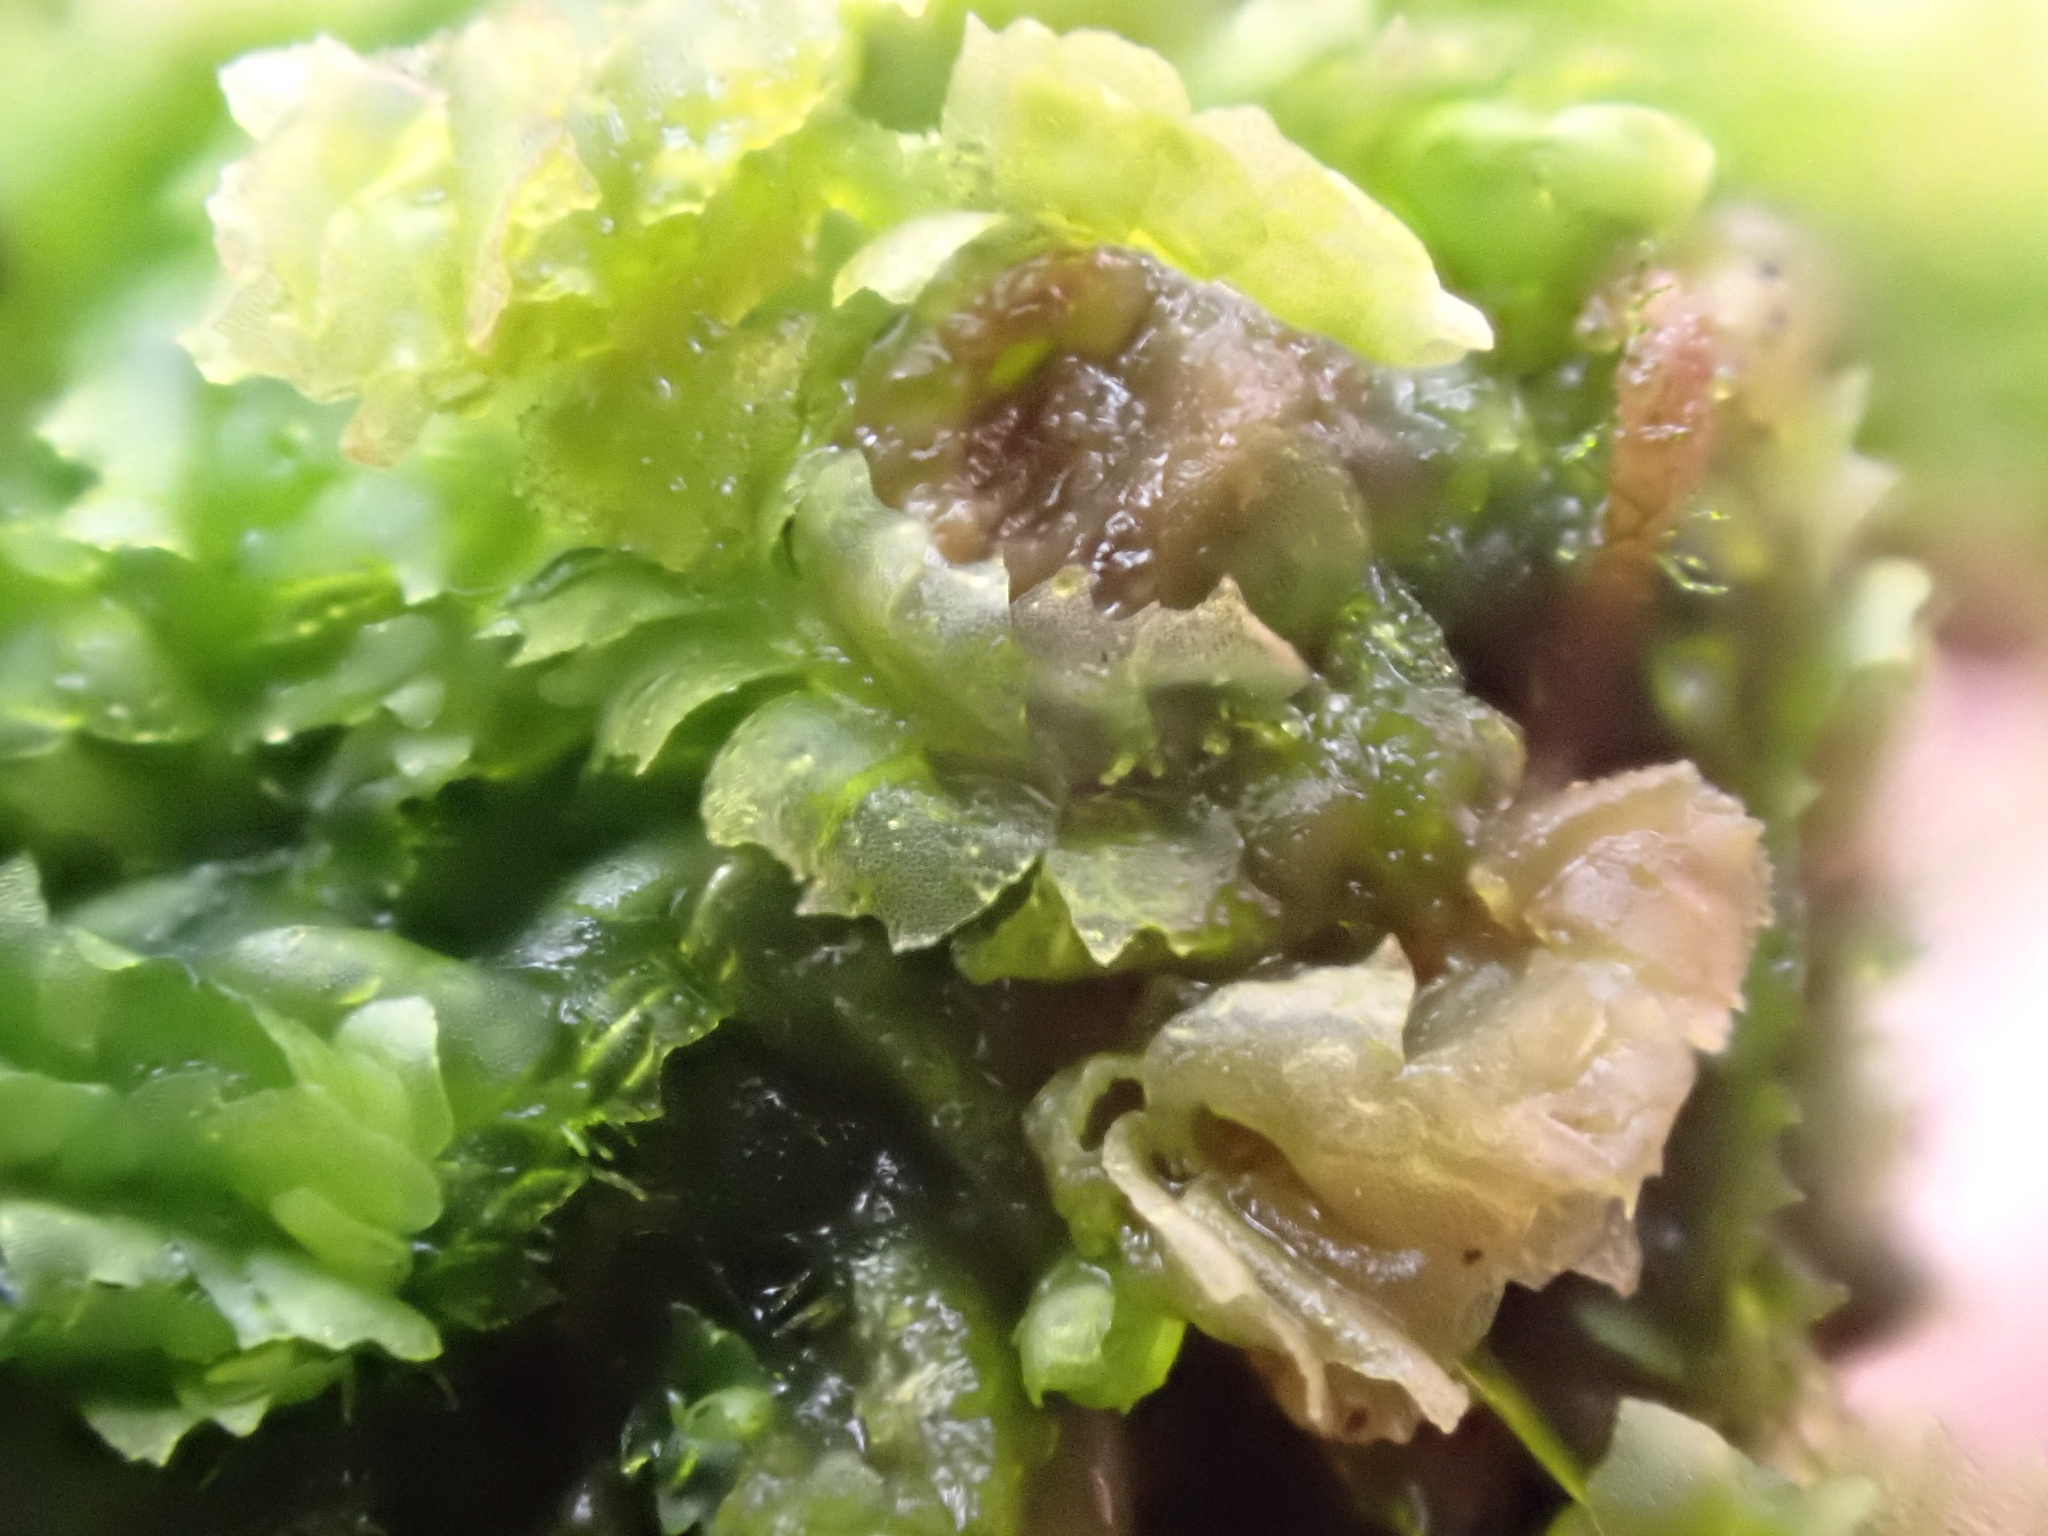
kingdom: Plantae
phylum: Marchantiophyta
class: Jungermanniopsida
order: Jungermanniales
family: Lophocoleaceae
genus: Lophocolea
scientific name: Lophocolea heterophylla
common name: Variable-leaved crestwort
